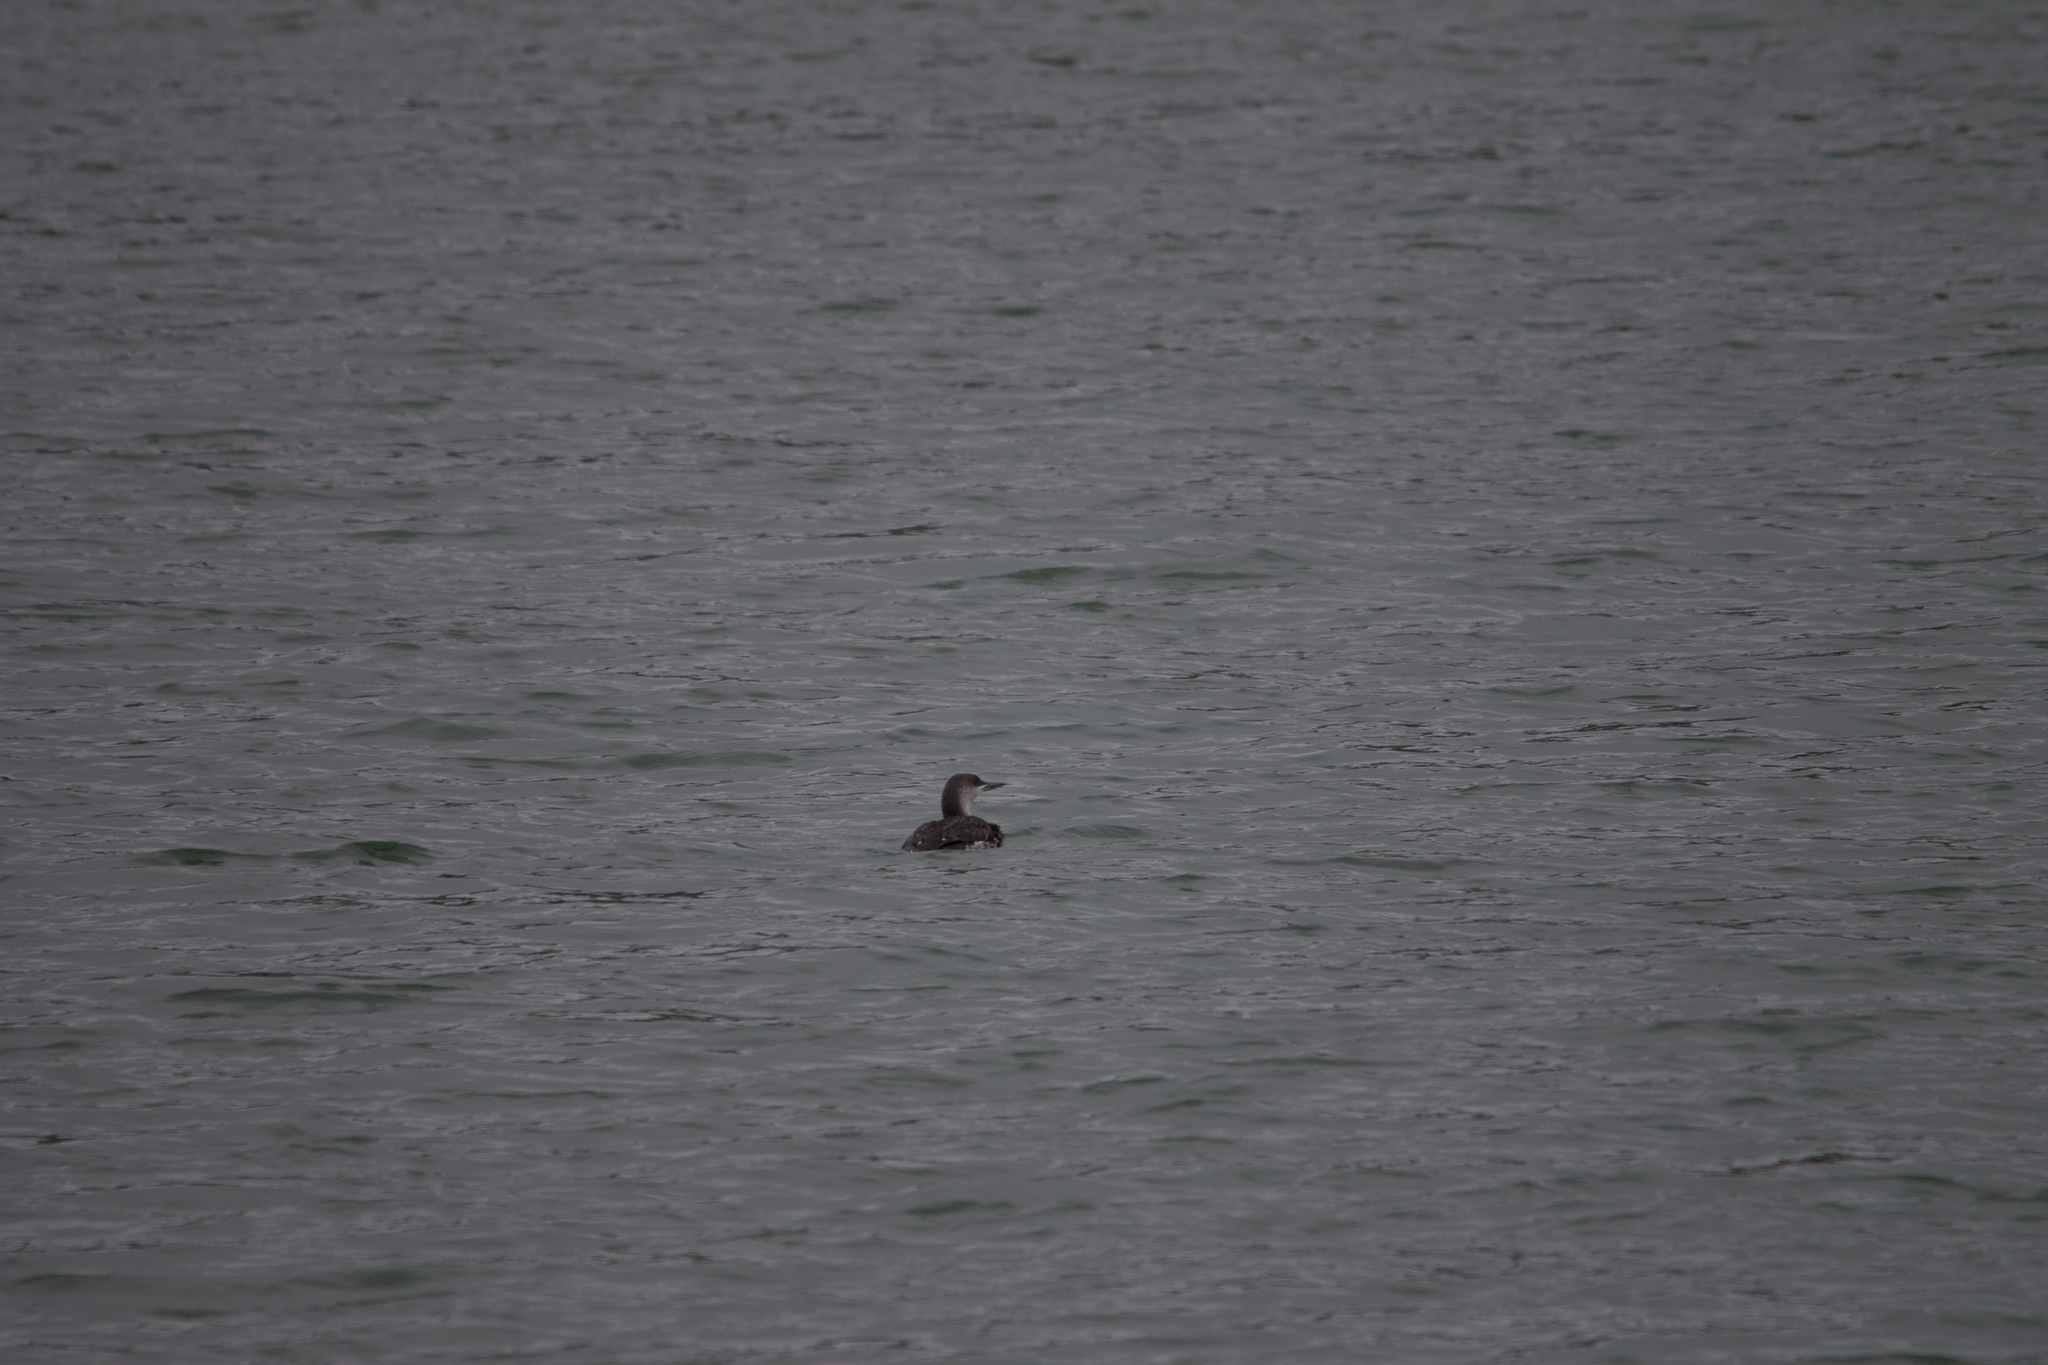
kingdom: Animalia
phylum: Chordata
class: Aves
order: Gaviiformes
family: Gaviidae
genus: Gavia
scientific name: Gavia stellata
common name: Red-throated loon
